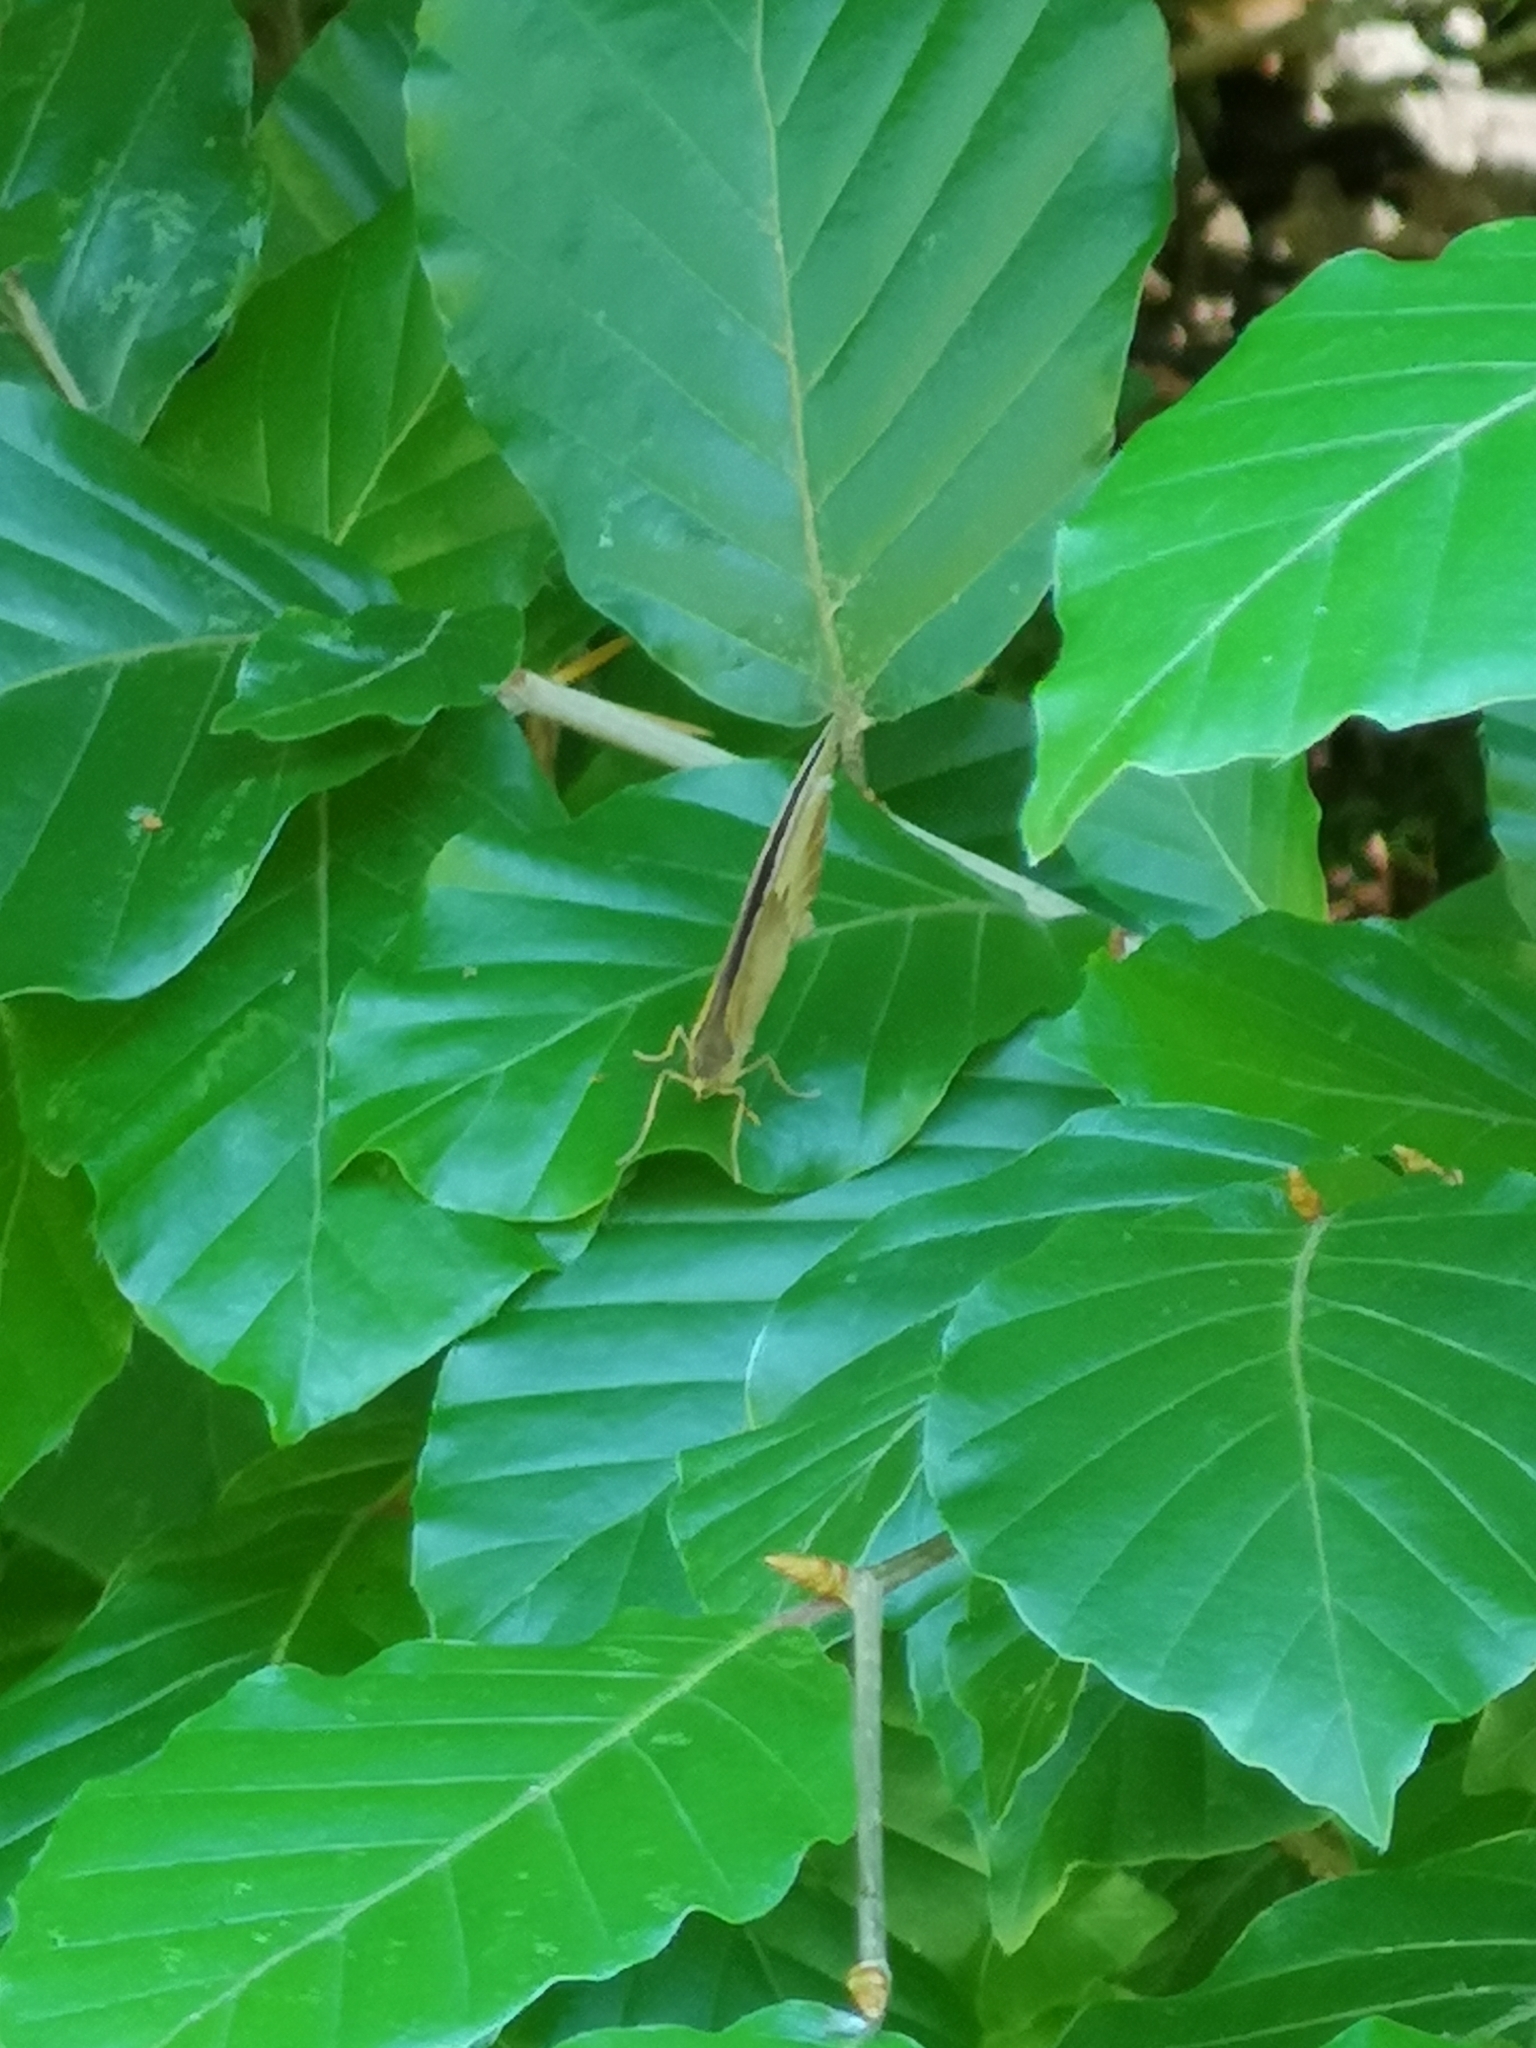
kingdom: Animalia
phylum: Arthropoda
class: Insecta
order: Lepidoptera
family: Nymphalidae
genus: Maniola
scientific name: Maniola jurtina
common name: Meadow brown
